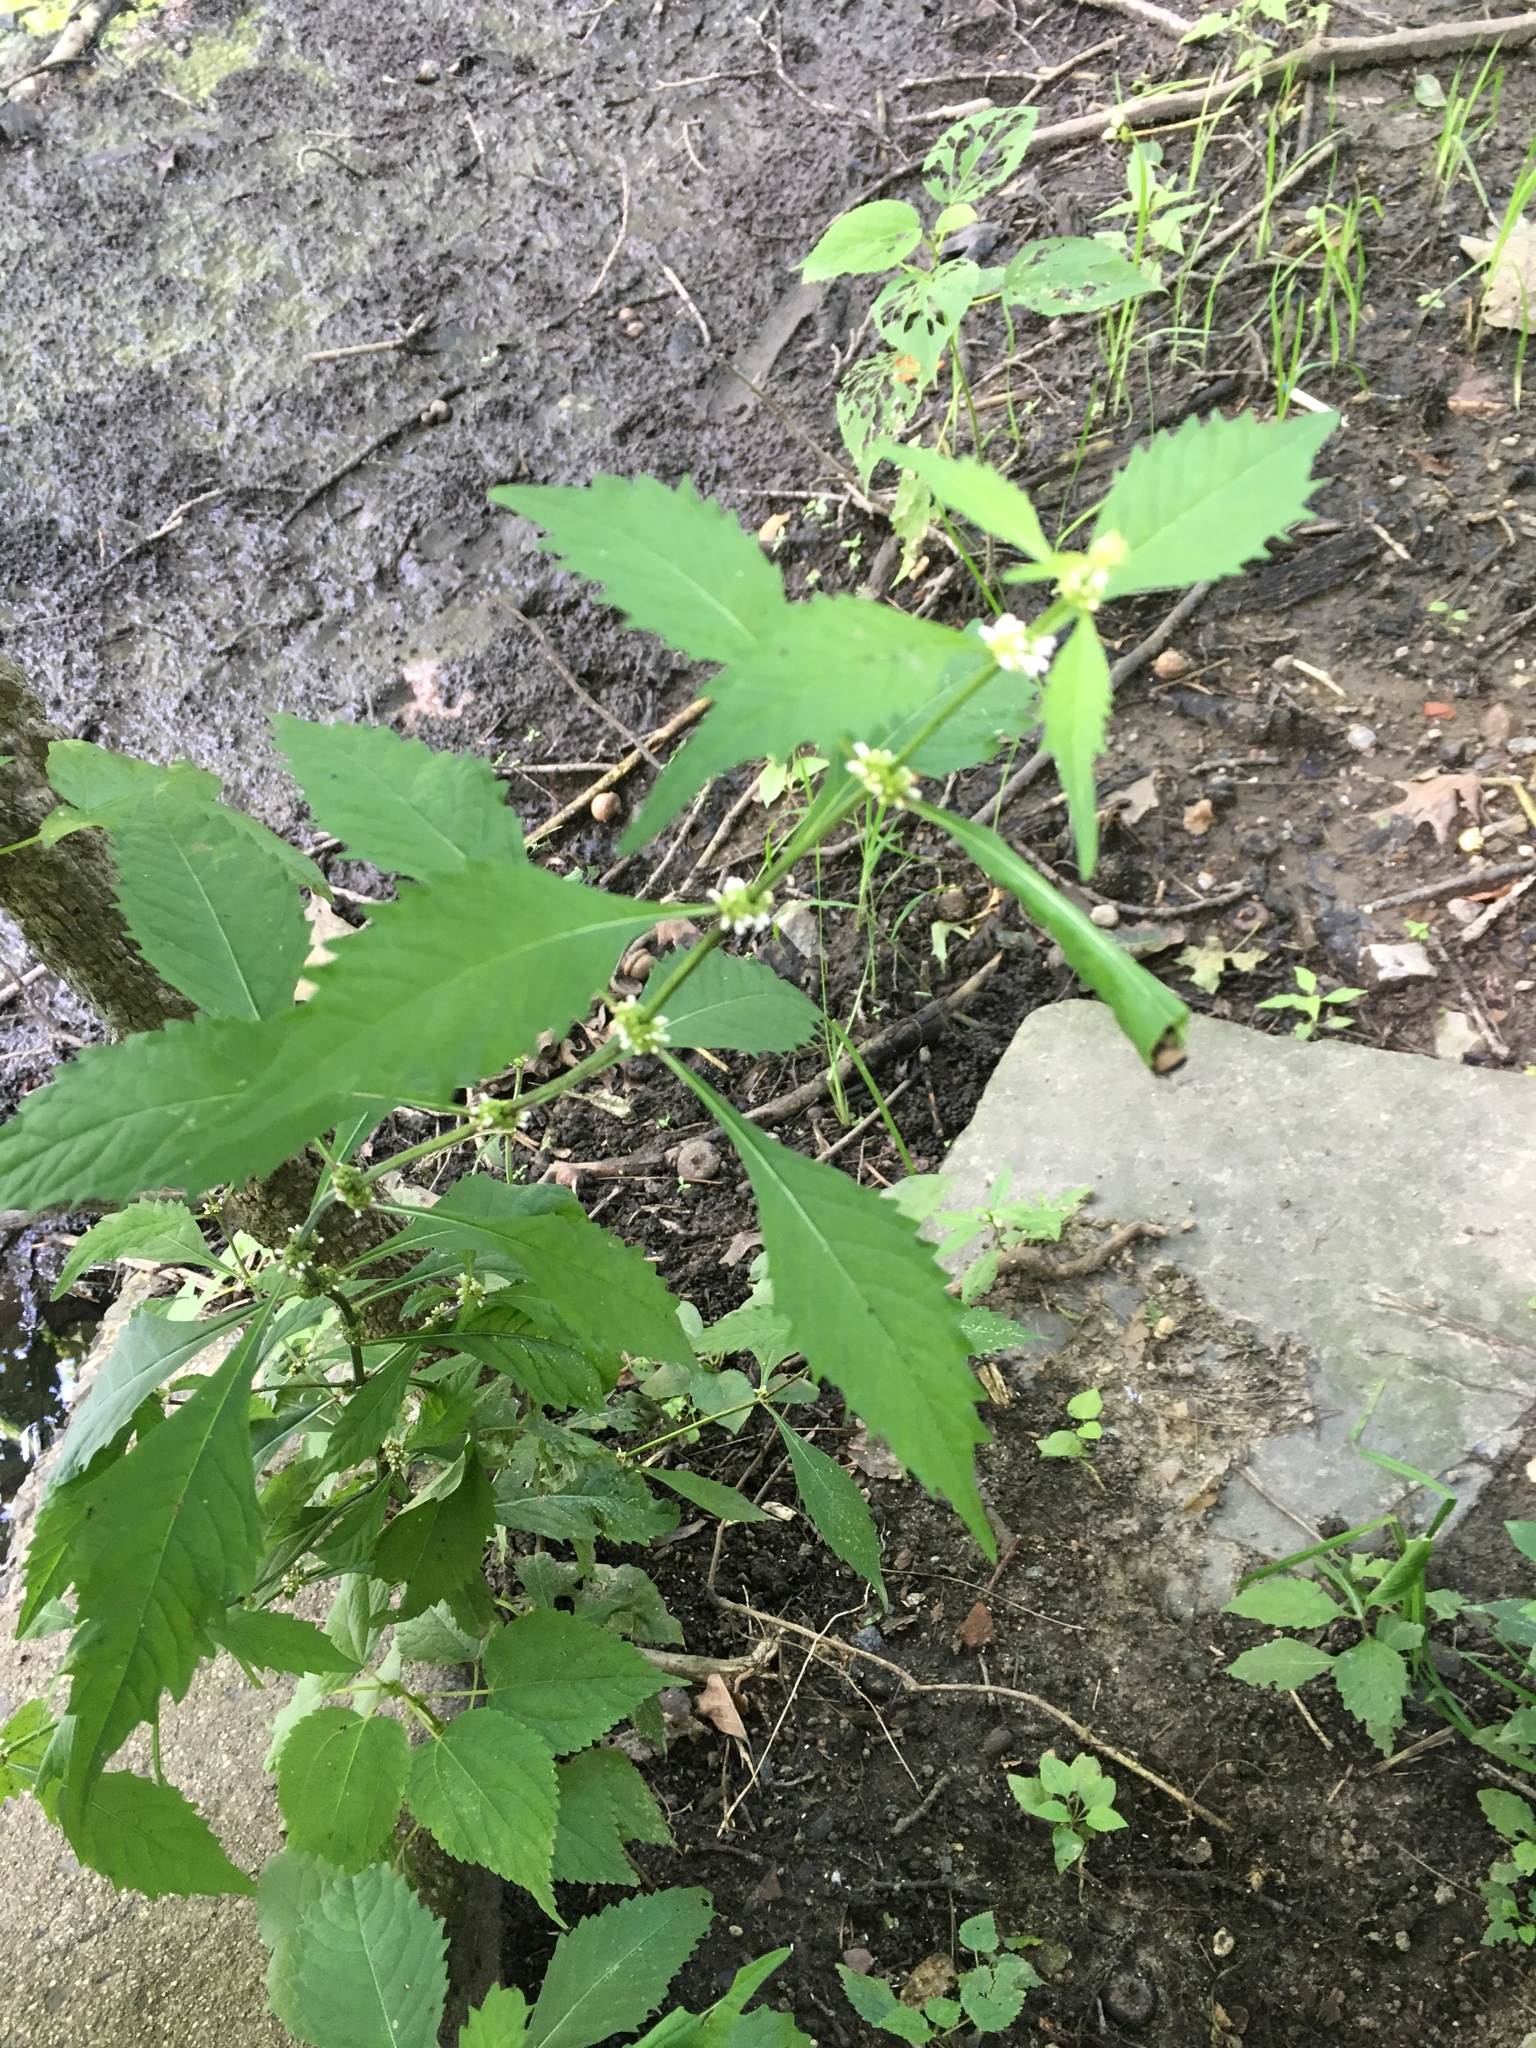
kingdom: Plantae
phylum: Tracheophyta
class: Magnoliopsida
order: Lamiales
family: Lamiaceae
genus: Lycopus
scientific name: Lycopus americanus
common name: American bugleweed
